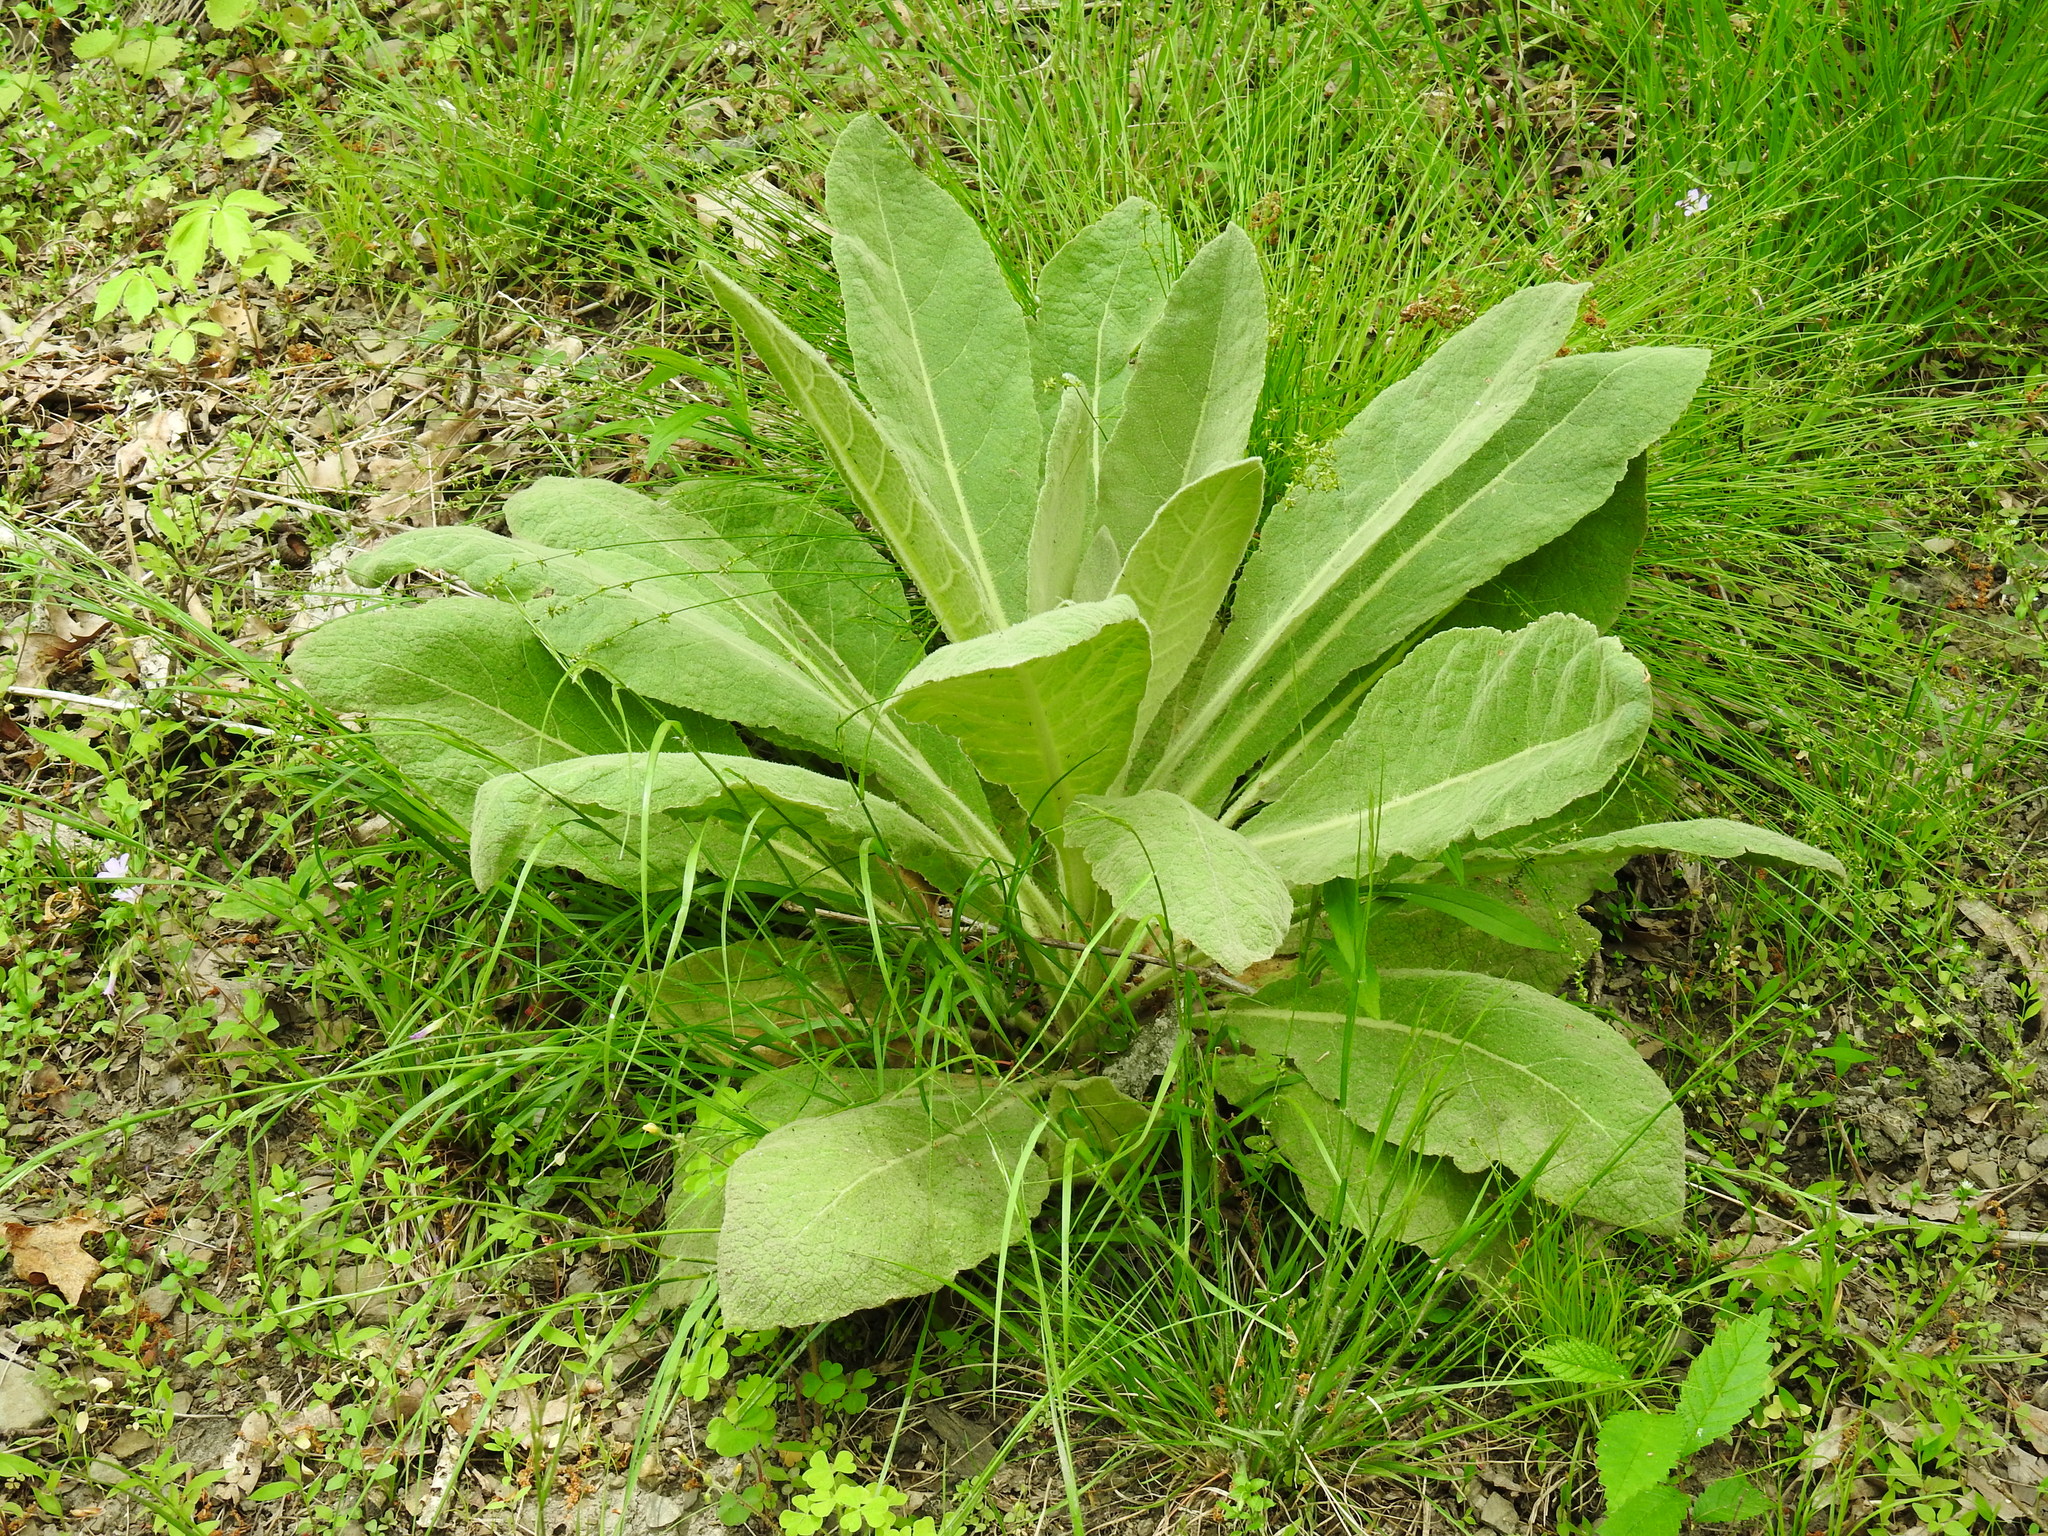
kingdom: Plantae
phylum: Tracheophyta
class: Magnoliopsida
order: Lamiales
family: Scrophulariaceae
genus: Verbascum
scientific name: Verbascum thapsus
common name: Common mullein
